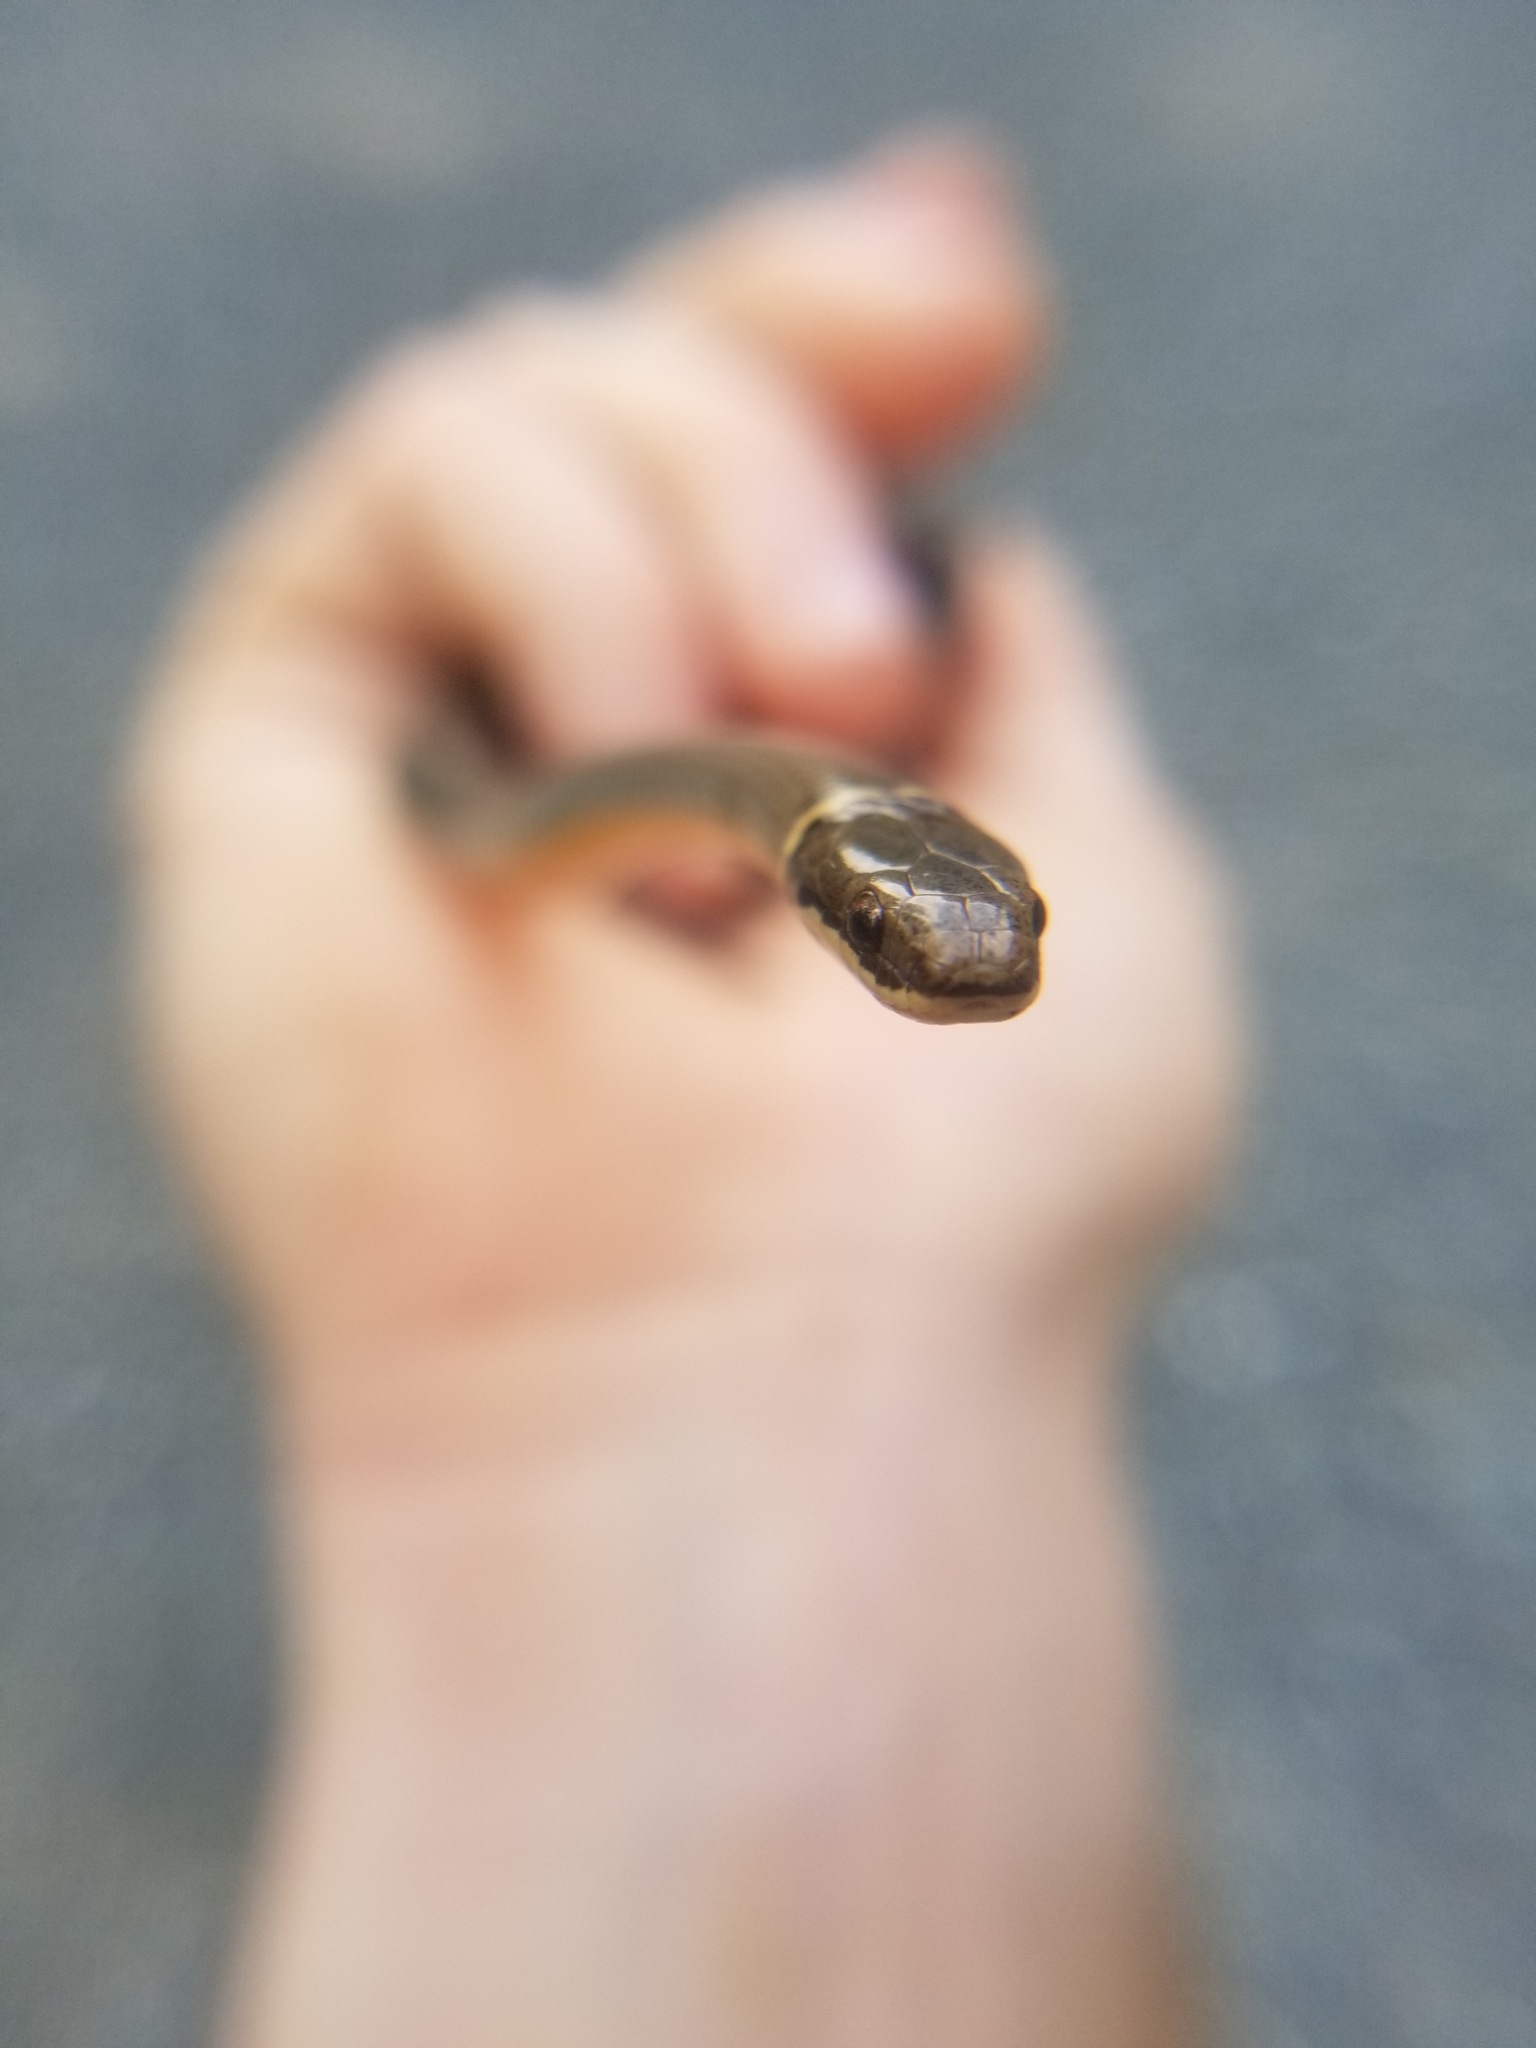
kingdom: Animalia
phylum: Chordata
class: Squamata
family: Colubridae
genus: Diadophis
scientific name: Diadophis punctatus
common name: Ringneck snake
